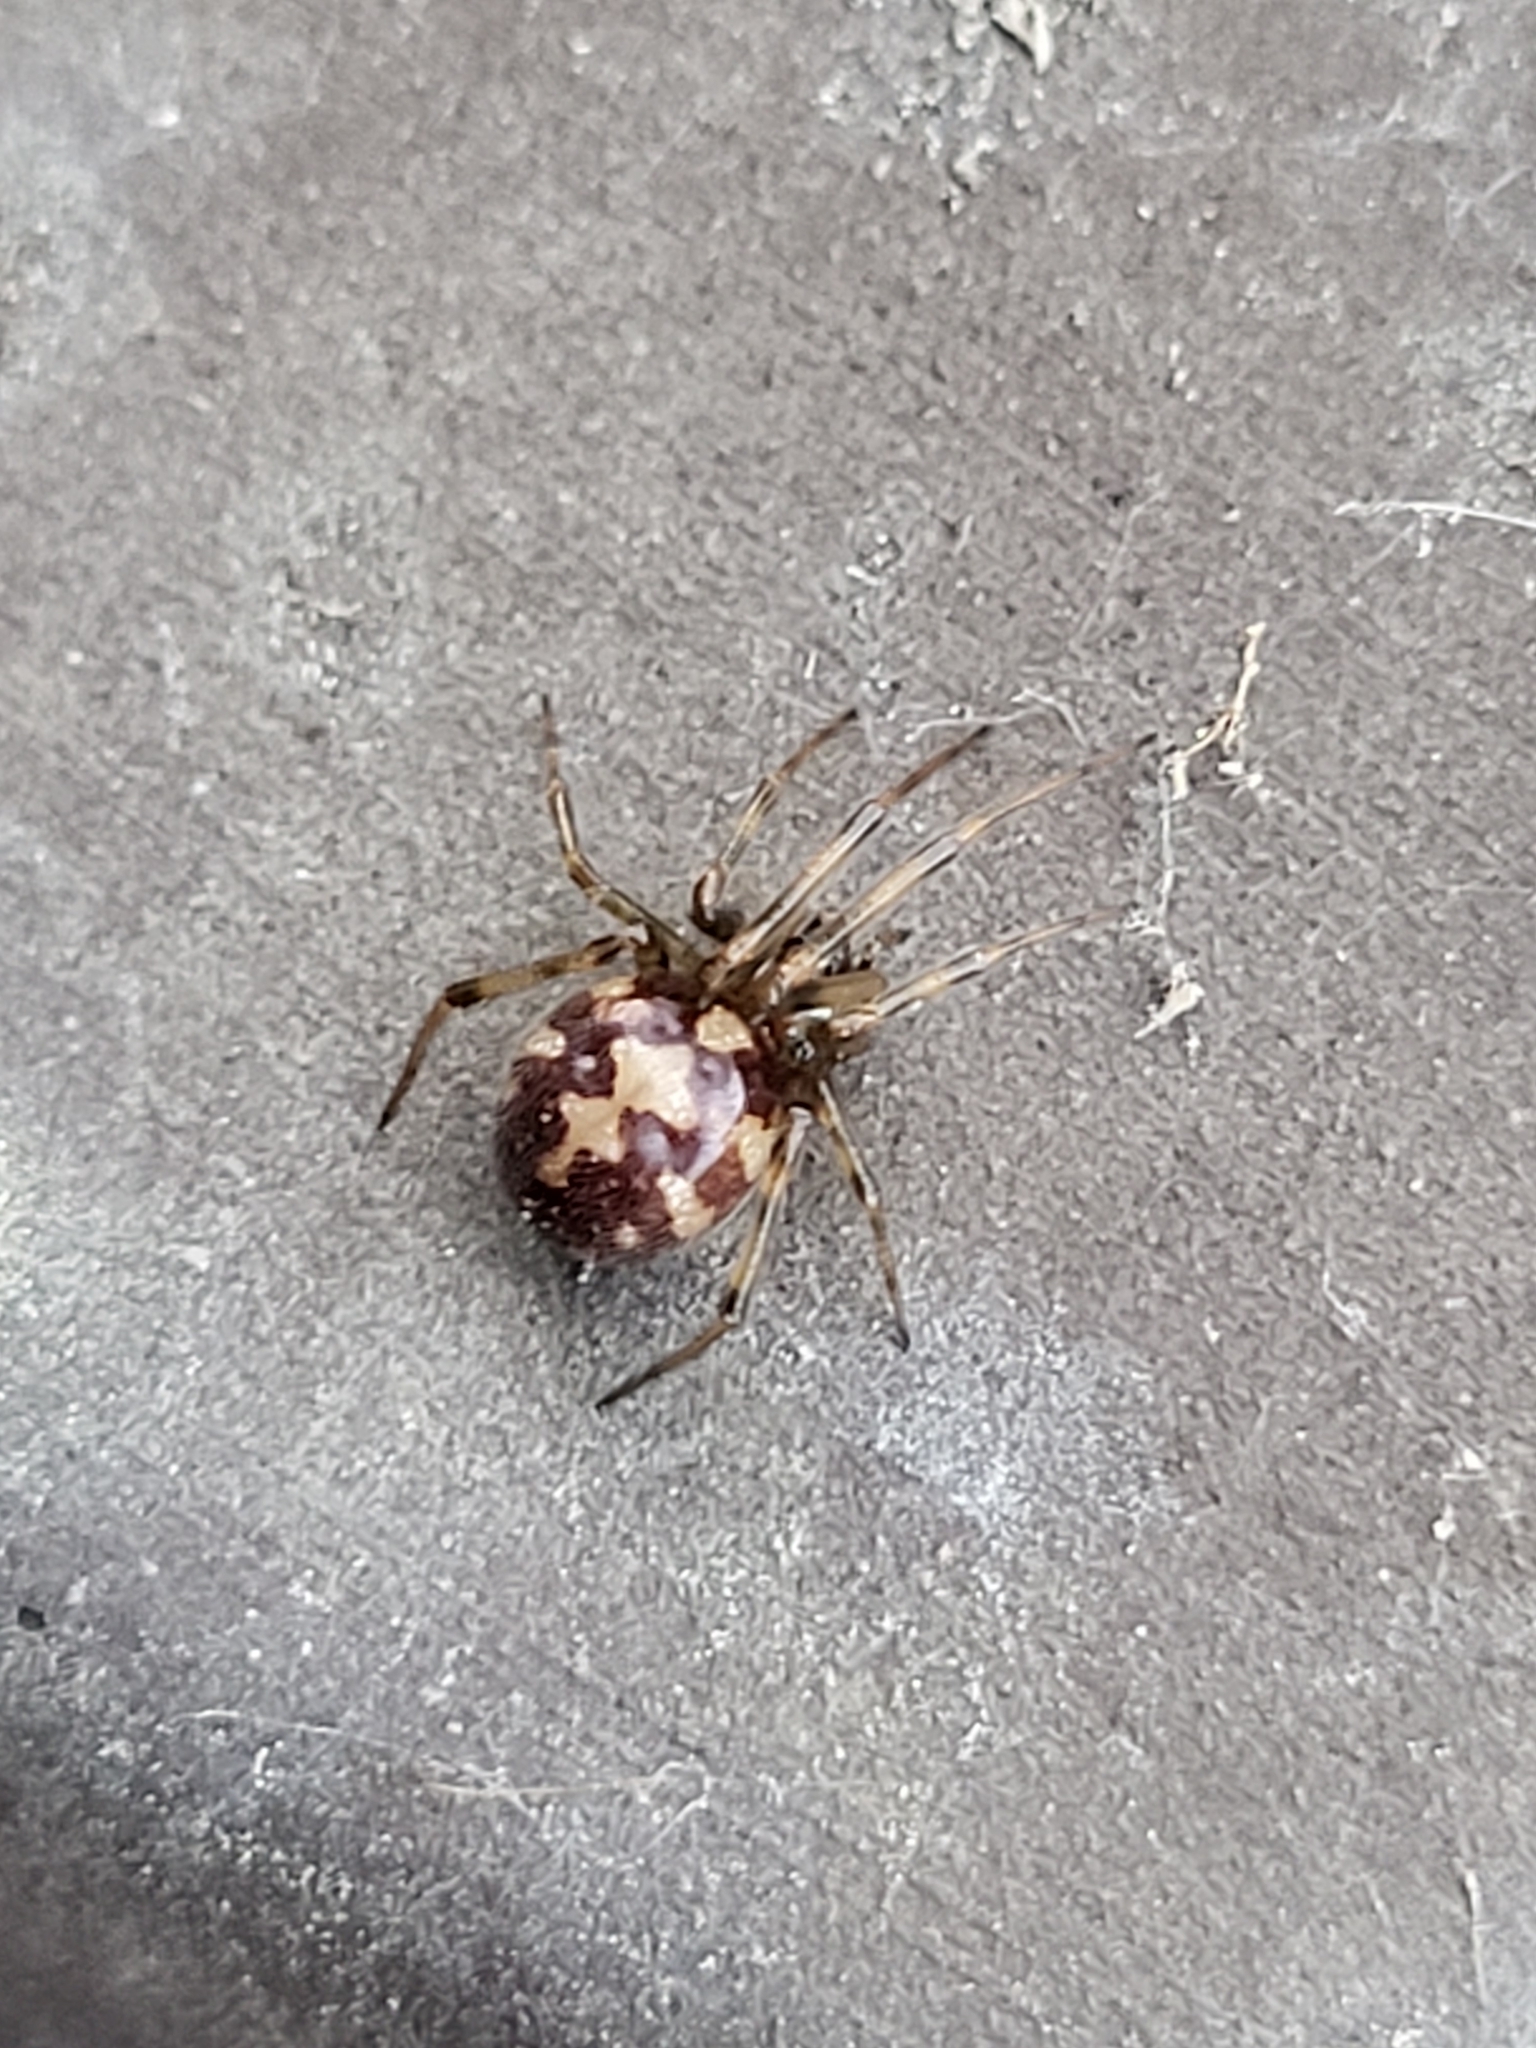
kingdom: Animalia
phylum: Arthropoda
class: Arachnida
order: Araneae
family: Theridiidae
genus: Steatoda
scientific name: Steatoda triangulosa
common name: Triangulate bud spider
